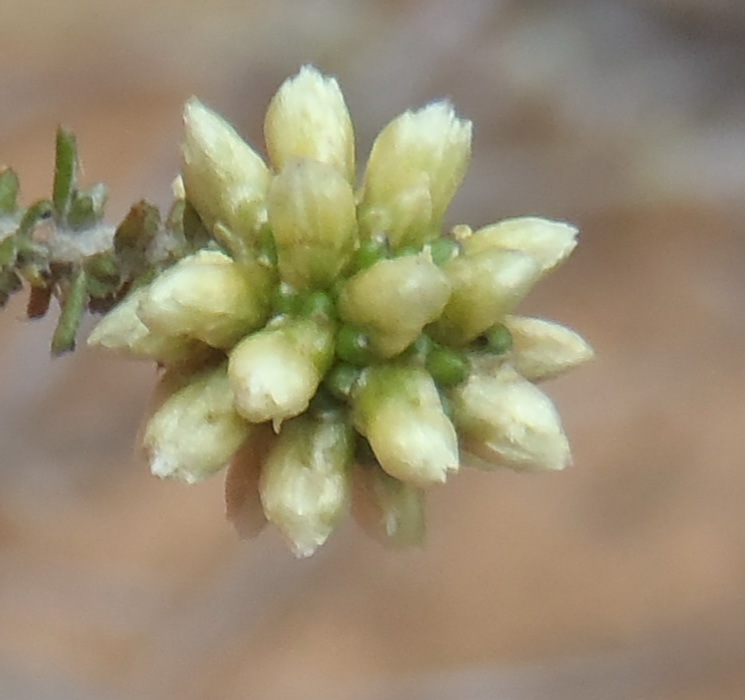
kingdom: Plantae
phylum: Tracheophyta
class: Magnoliopsida
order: Asterales
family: Asteraceae
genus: Ifloga
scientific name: Ifloga repens
